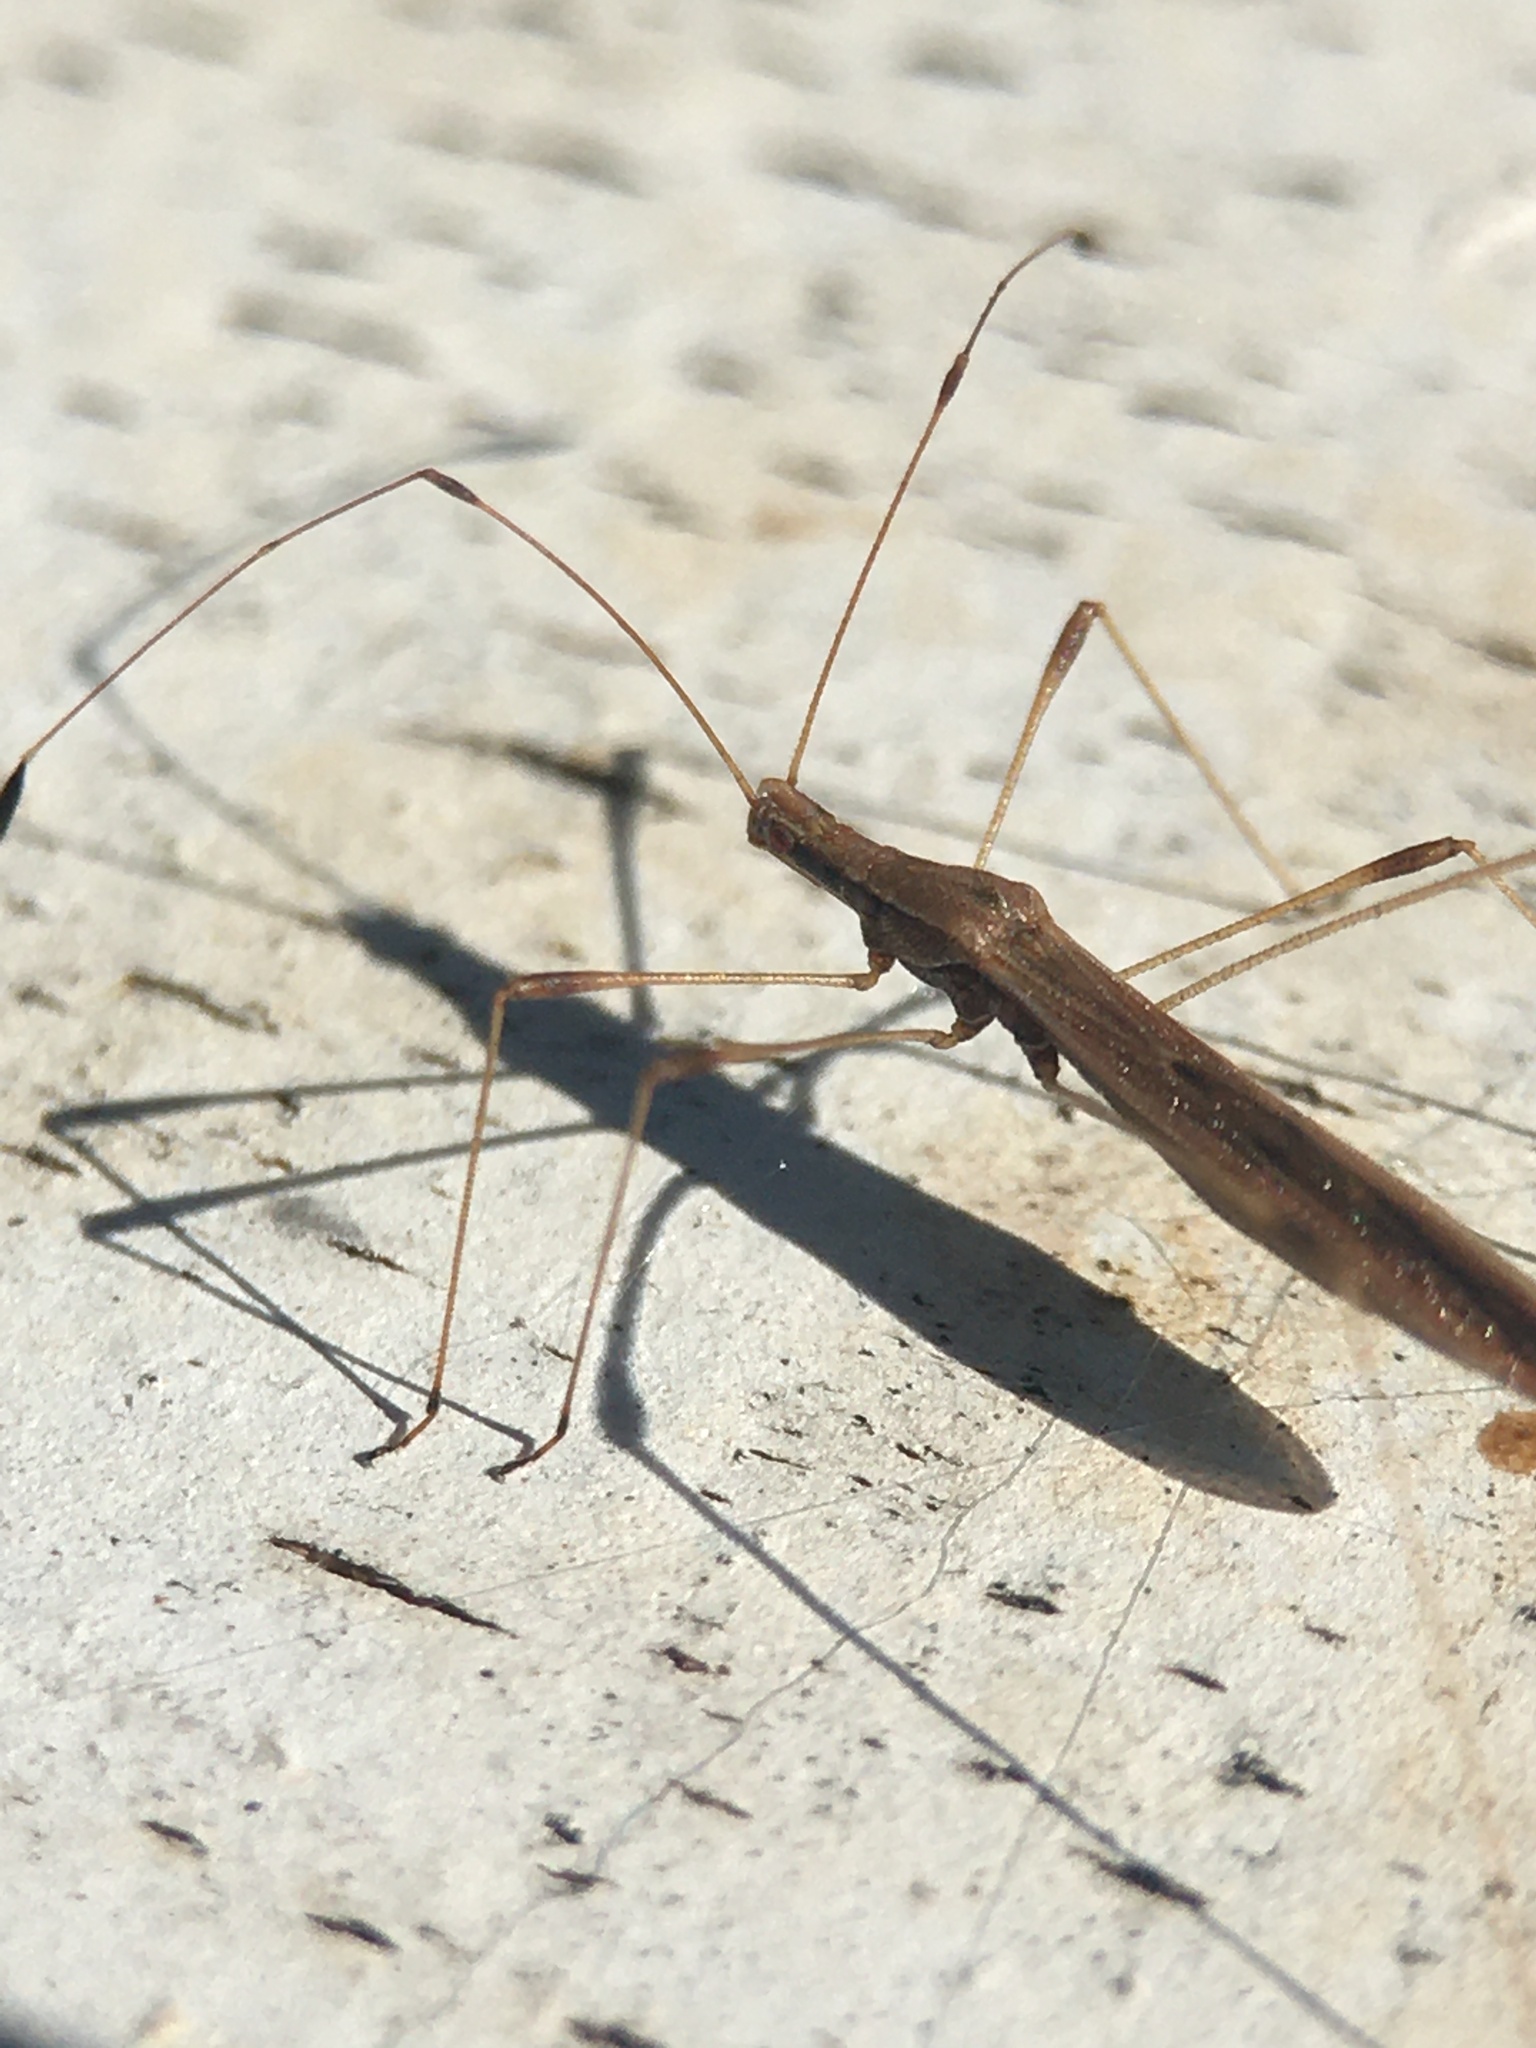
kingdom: Animalia
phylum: Arthropoda
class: Insecta
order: Hemiptera
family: Berytidae
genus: Neoneides
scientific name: Neoneides muticus
